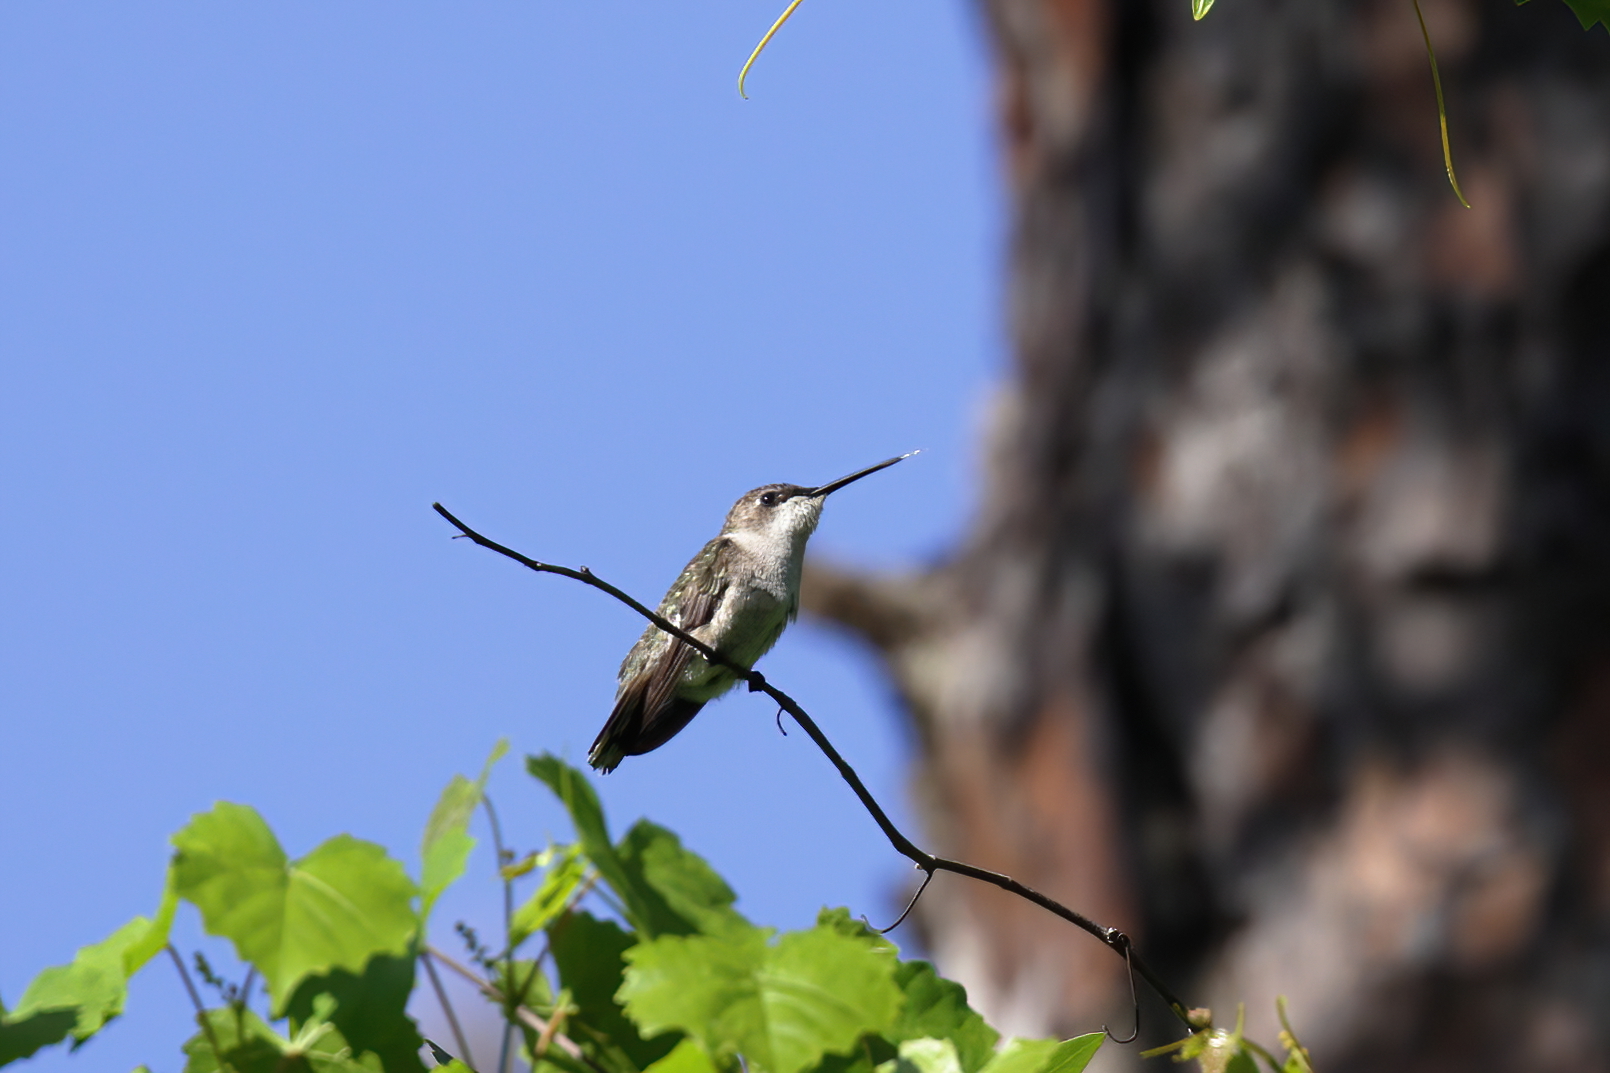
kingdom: Animalia
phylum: Chordata
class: Aves
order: Apodiformes
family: Trochilidae
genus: Archilochus
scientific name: Archilochus colubris
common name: Ruby-throated hummingbird
